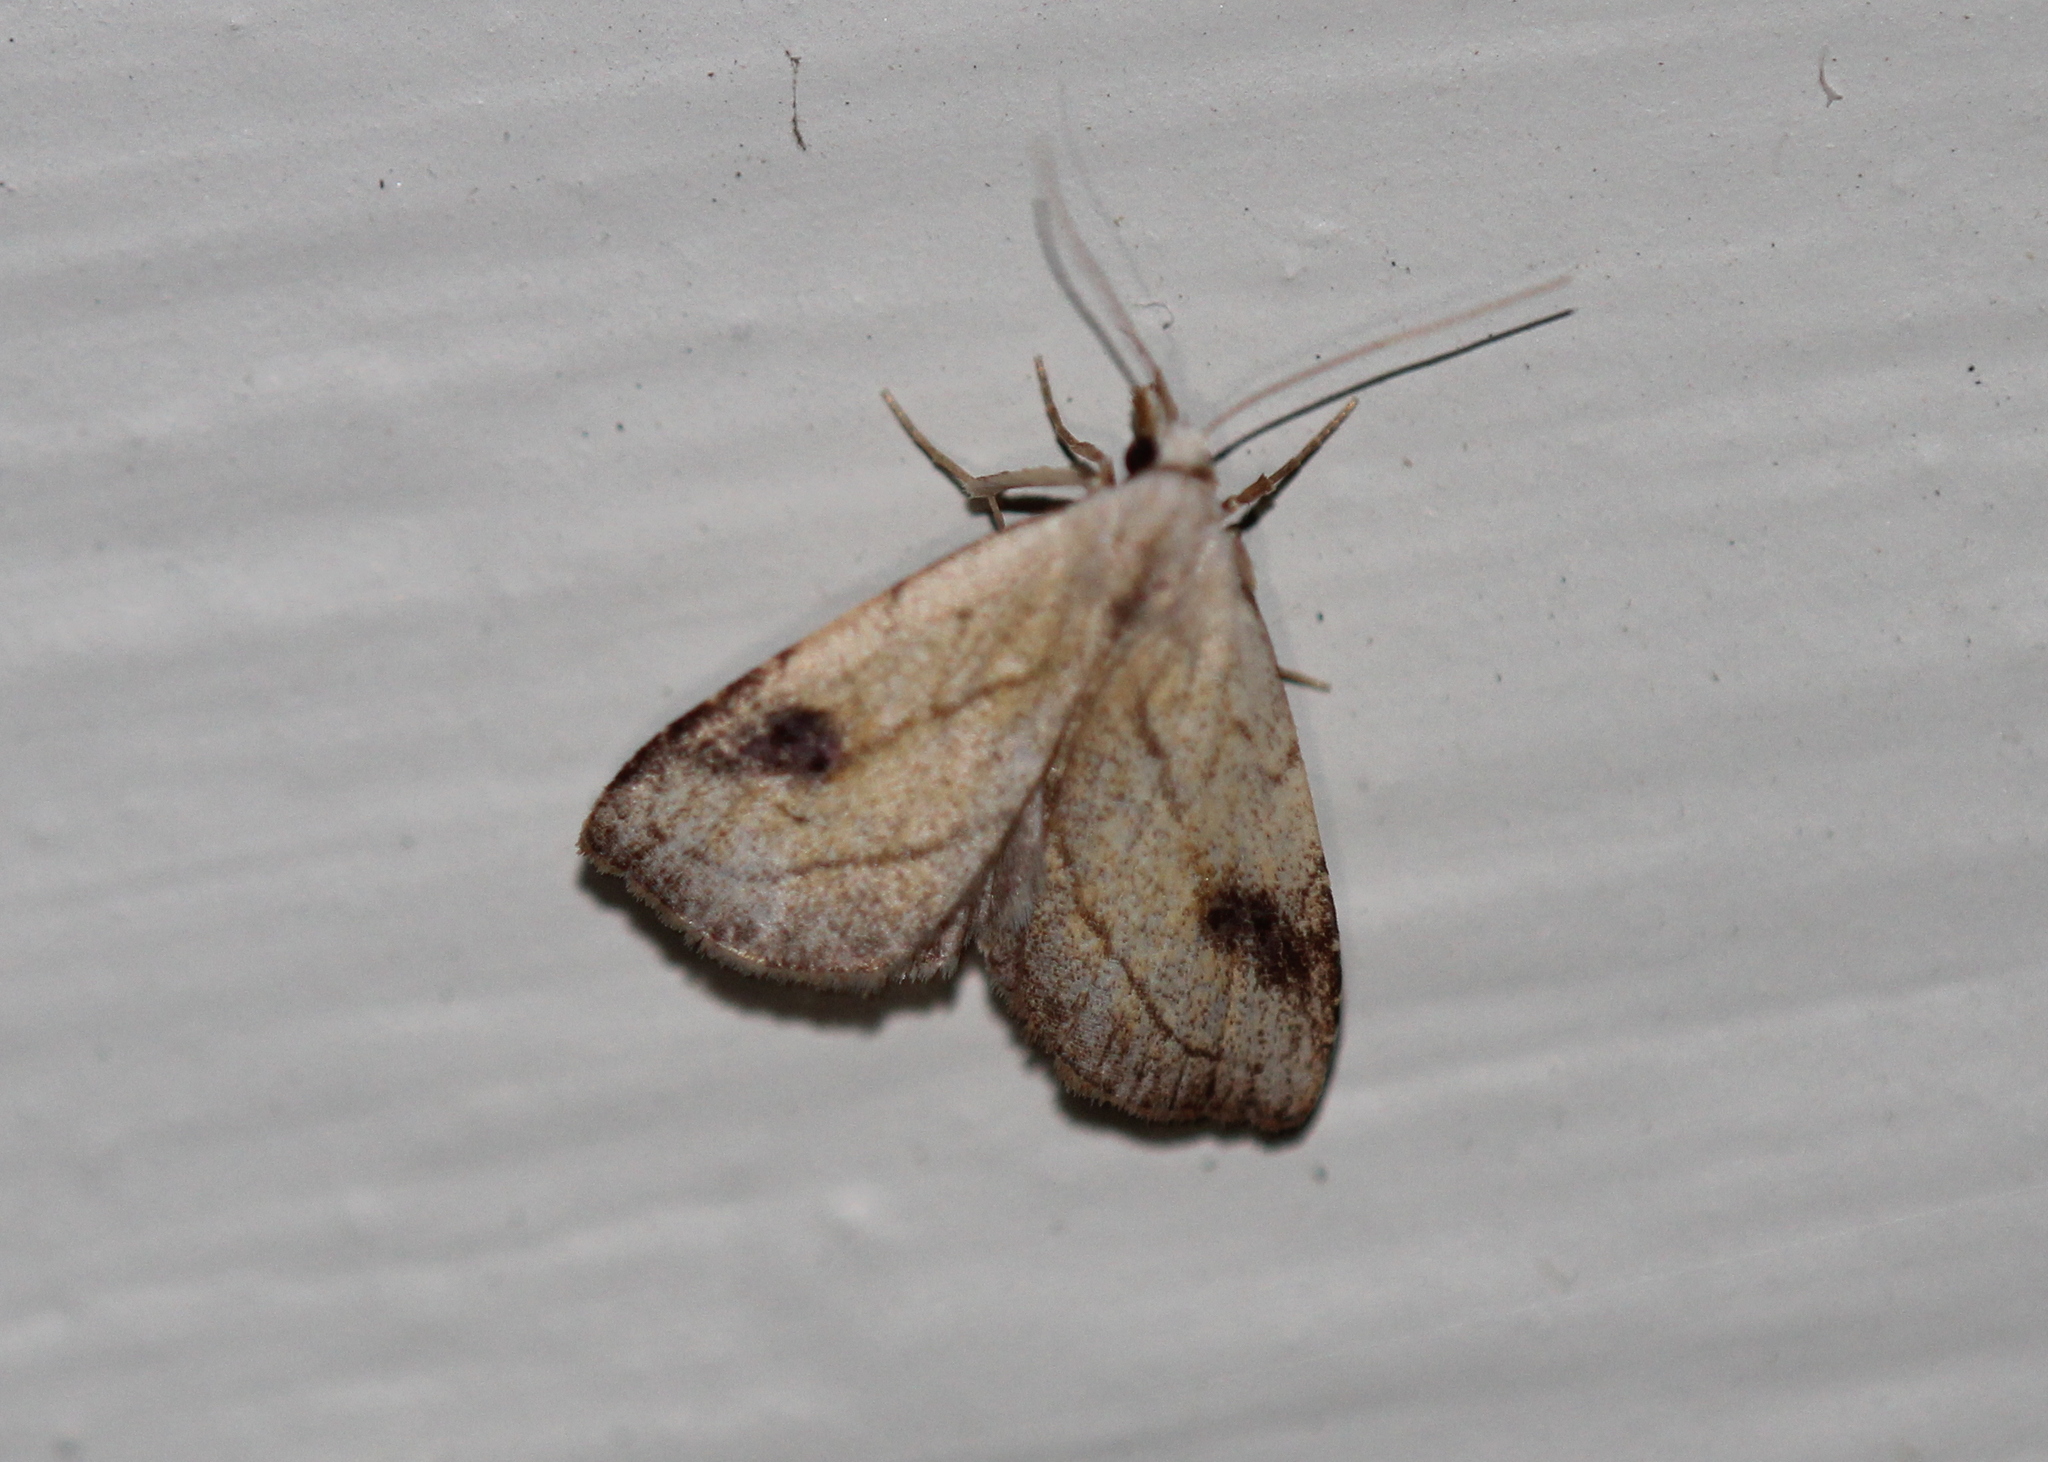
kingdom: Animalia
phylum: Arthropoda
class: Insecta
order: Lepidoptera
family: Erebidae
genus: Rivula
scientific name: Rivula propinqualis
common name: Spotted grass moth
